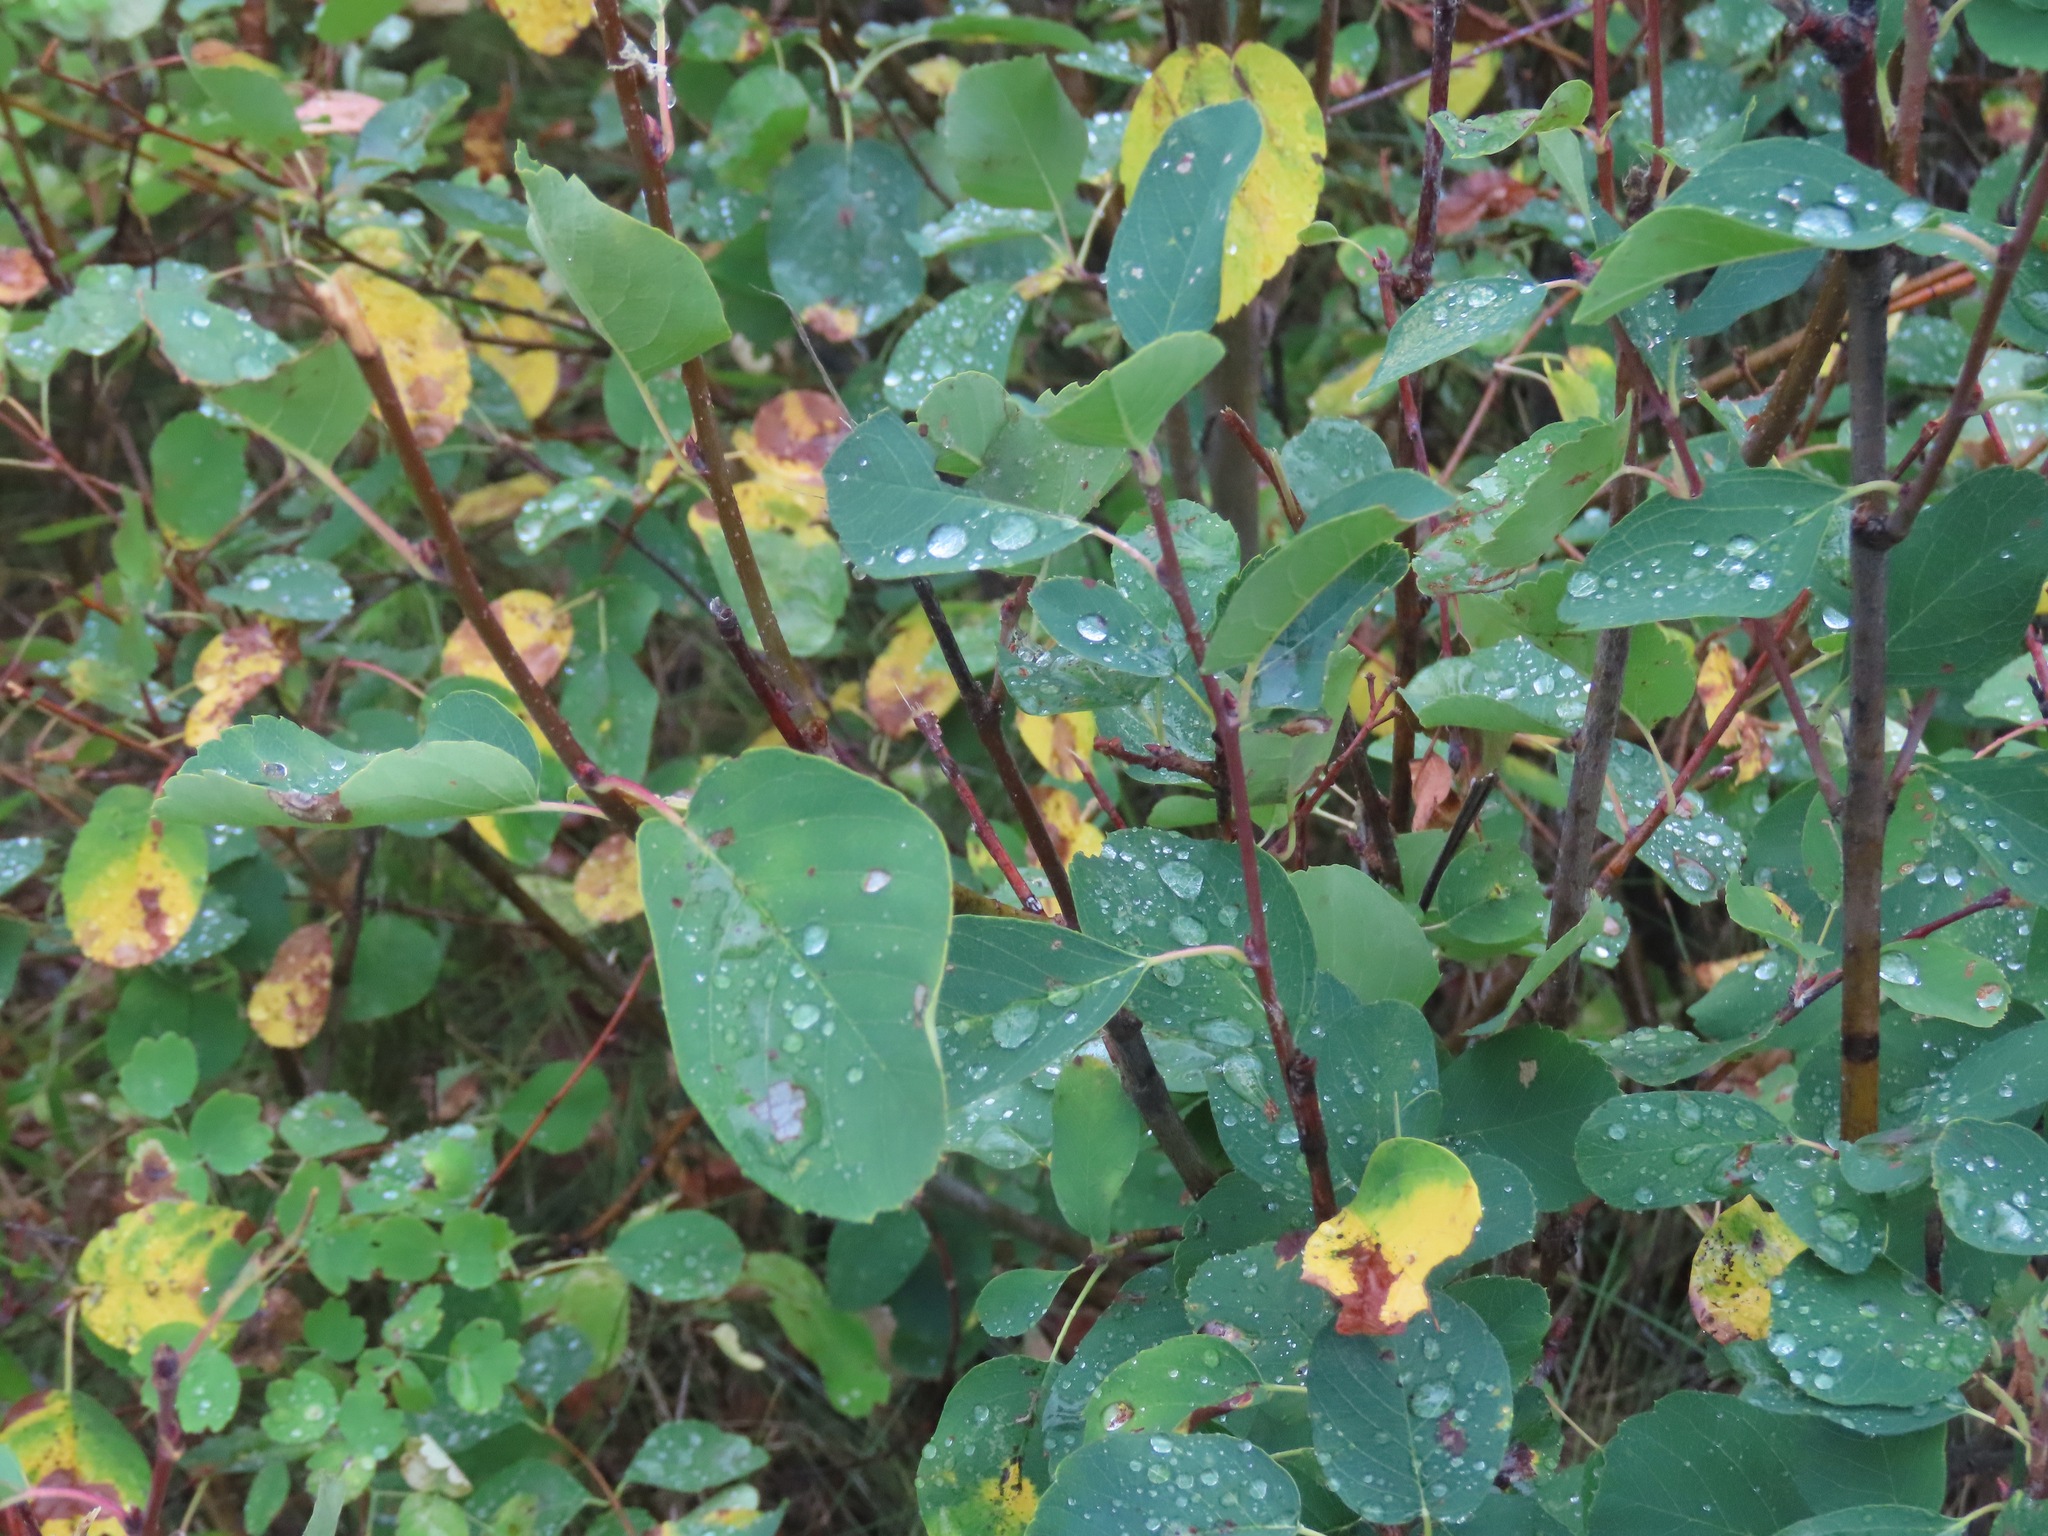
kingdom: Plantae
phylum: Tracheophyta
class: Magnoliopsida
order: Rosales
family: Rosaceae
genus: Amelanchier
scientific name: Amelanchier alnifolia
